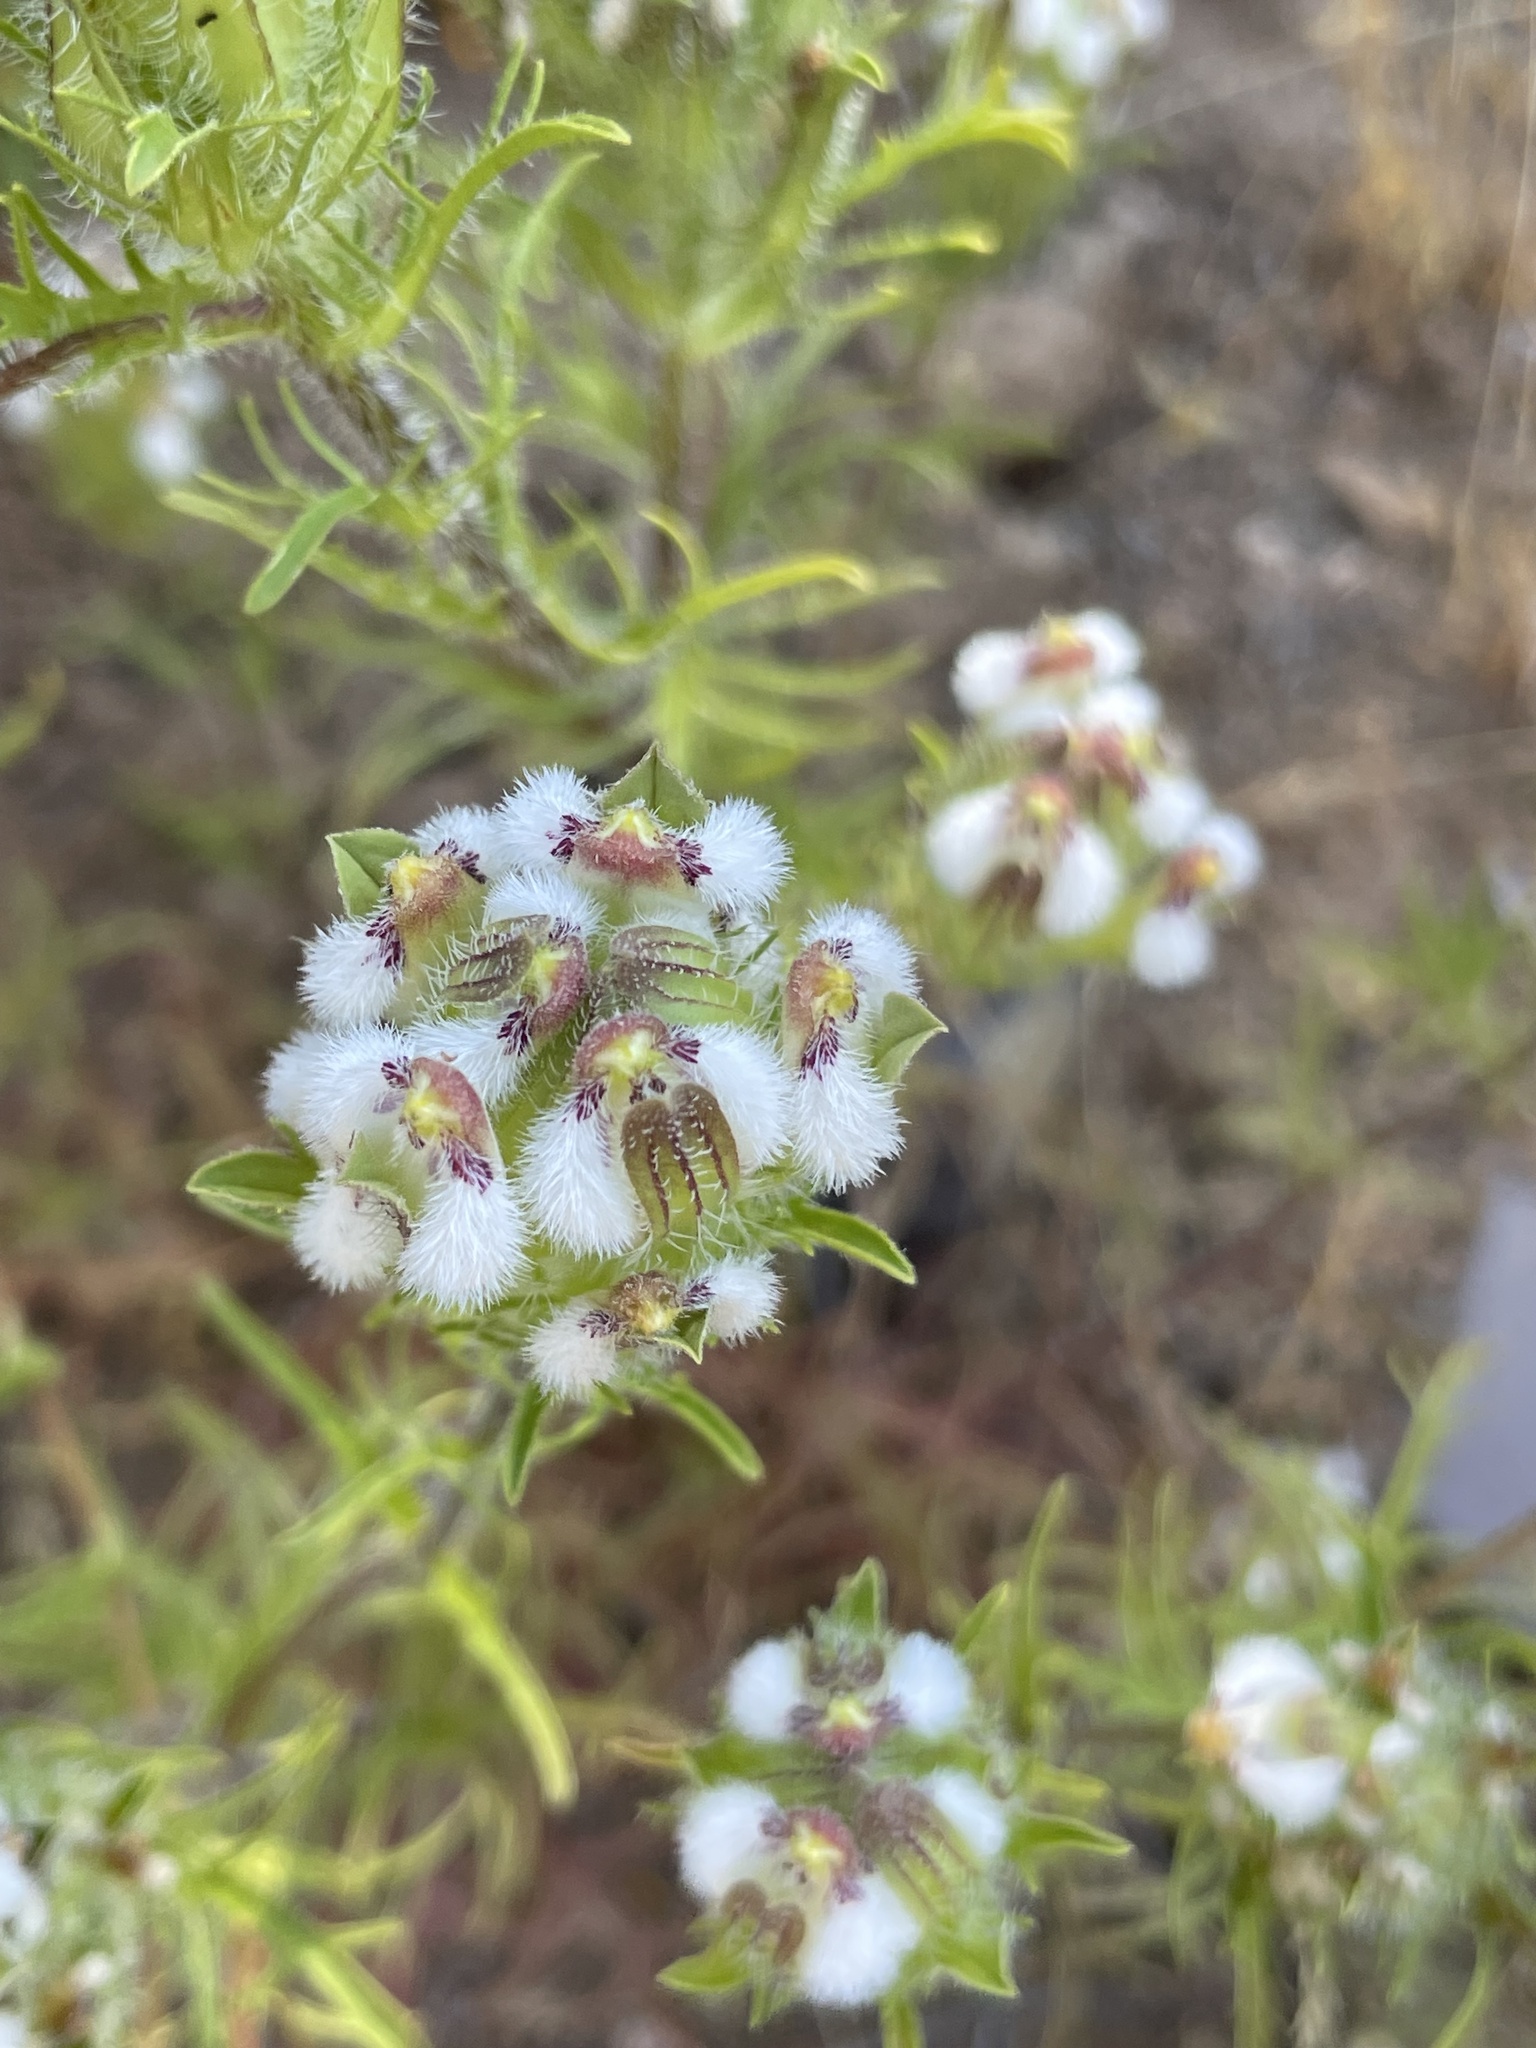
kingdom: Plantae
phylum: Tracheophyta
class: Magnoliopsida
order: Lamiales
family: Orobanchaceae
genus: Dicranostegia
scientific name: Dicranostegia orcuttiana
